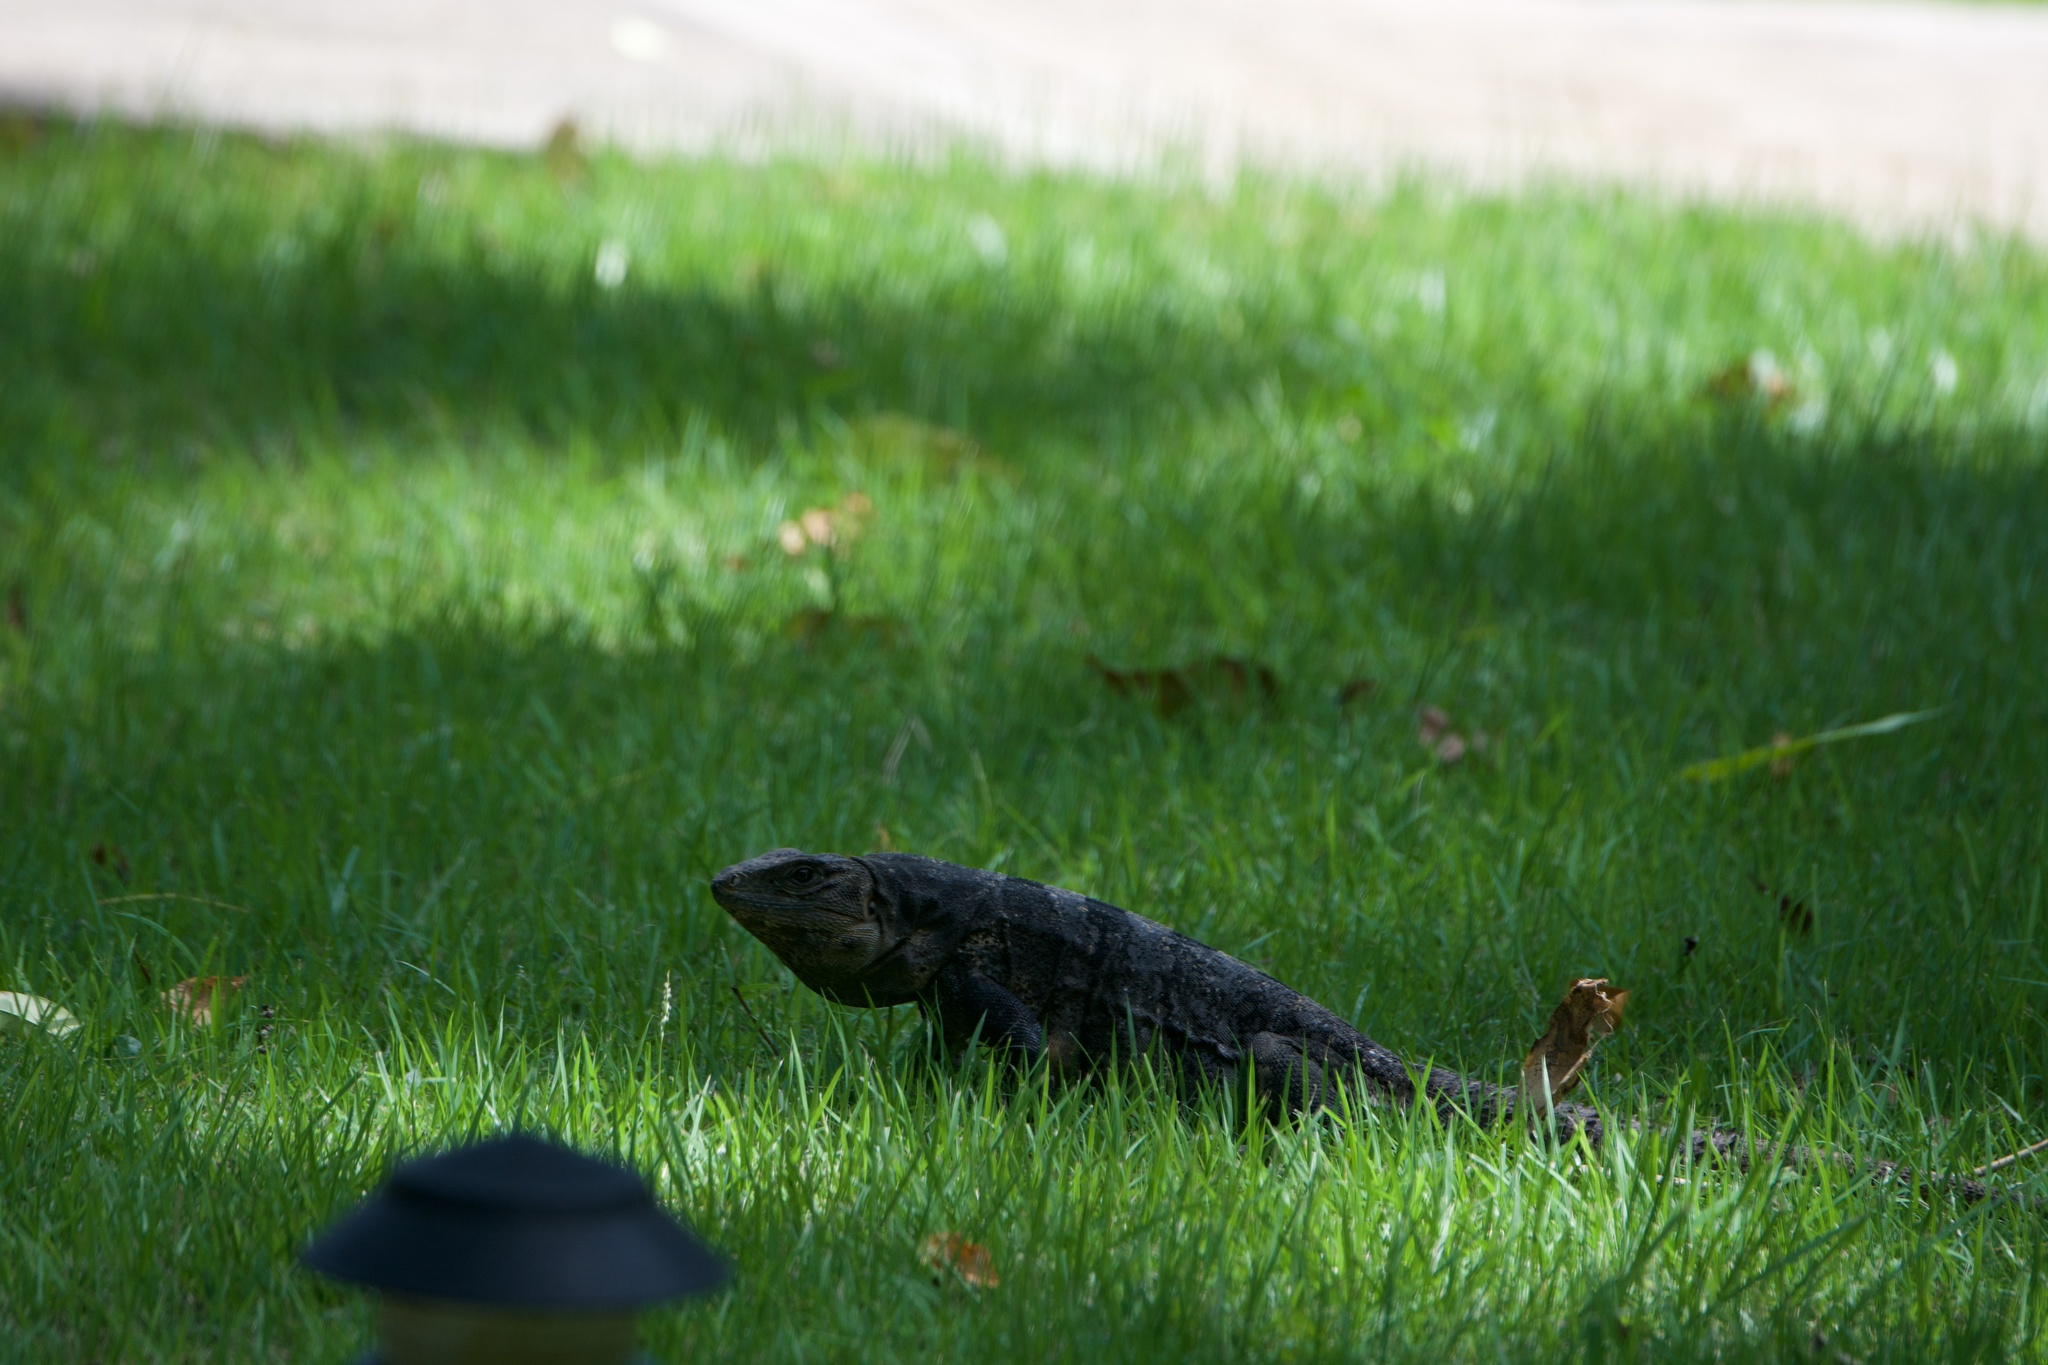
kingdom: Animalia
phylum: Chordata
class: Squamata
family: Iguanidae
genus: Ctenosaura
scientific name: Ctenosaura similis
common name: Black spiny-tailed iguana
